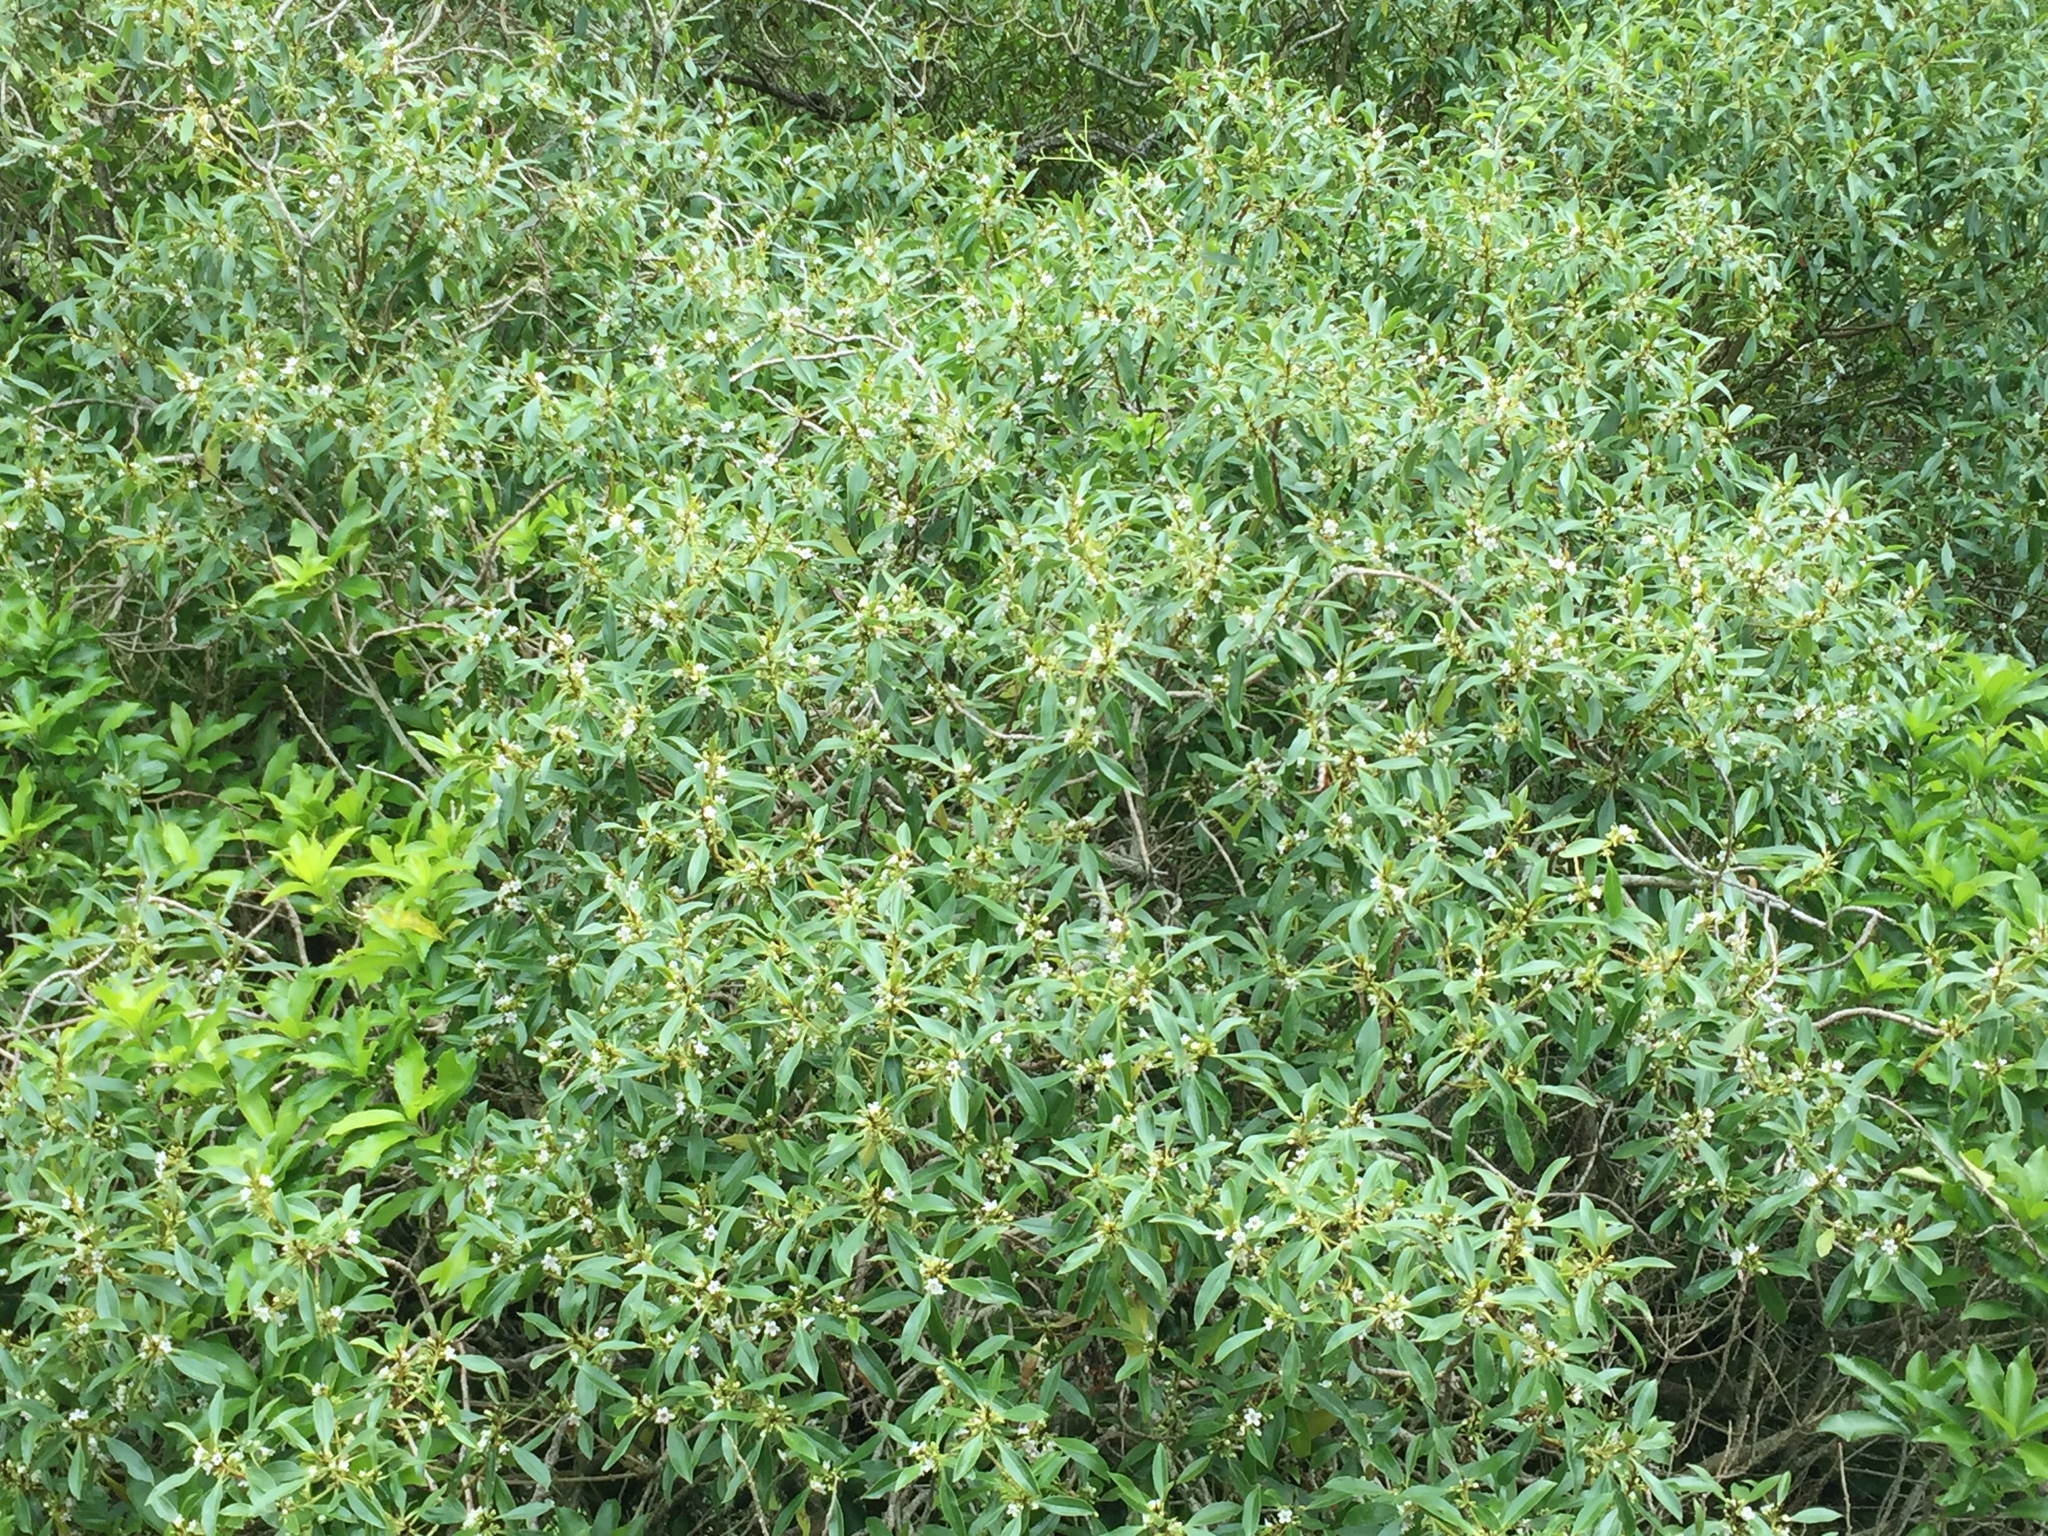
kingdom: Plantae
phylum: Tracheophyta
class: Magnoliopsida
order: Lamiales
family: Scrophulariaceae
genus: Myoporum
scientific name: Myoporum laetum
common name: Ngaio tree
